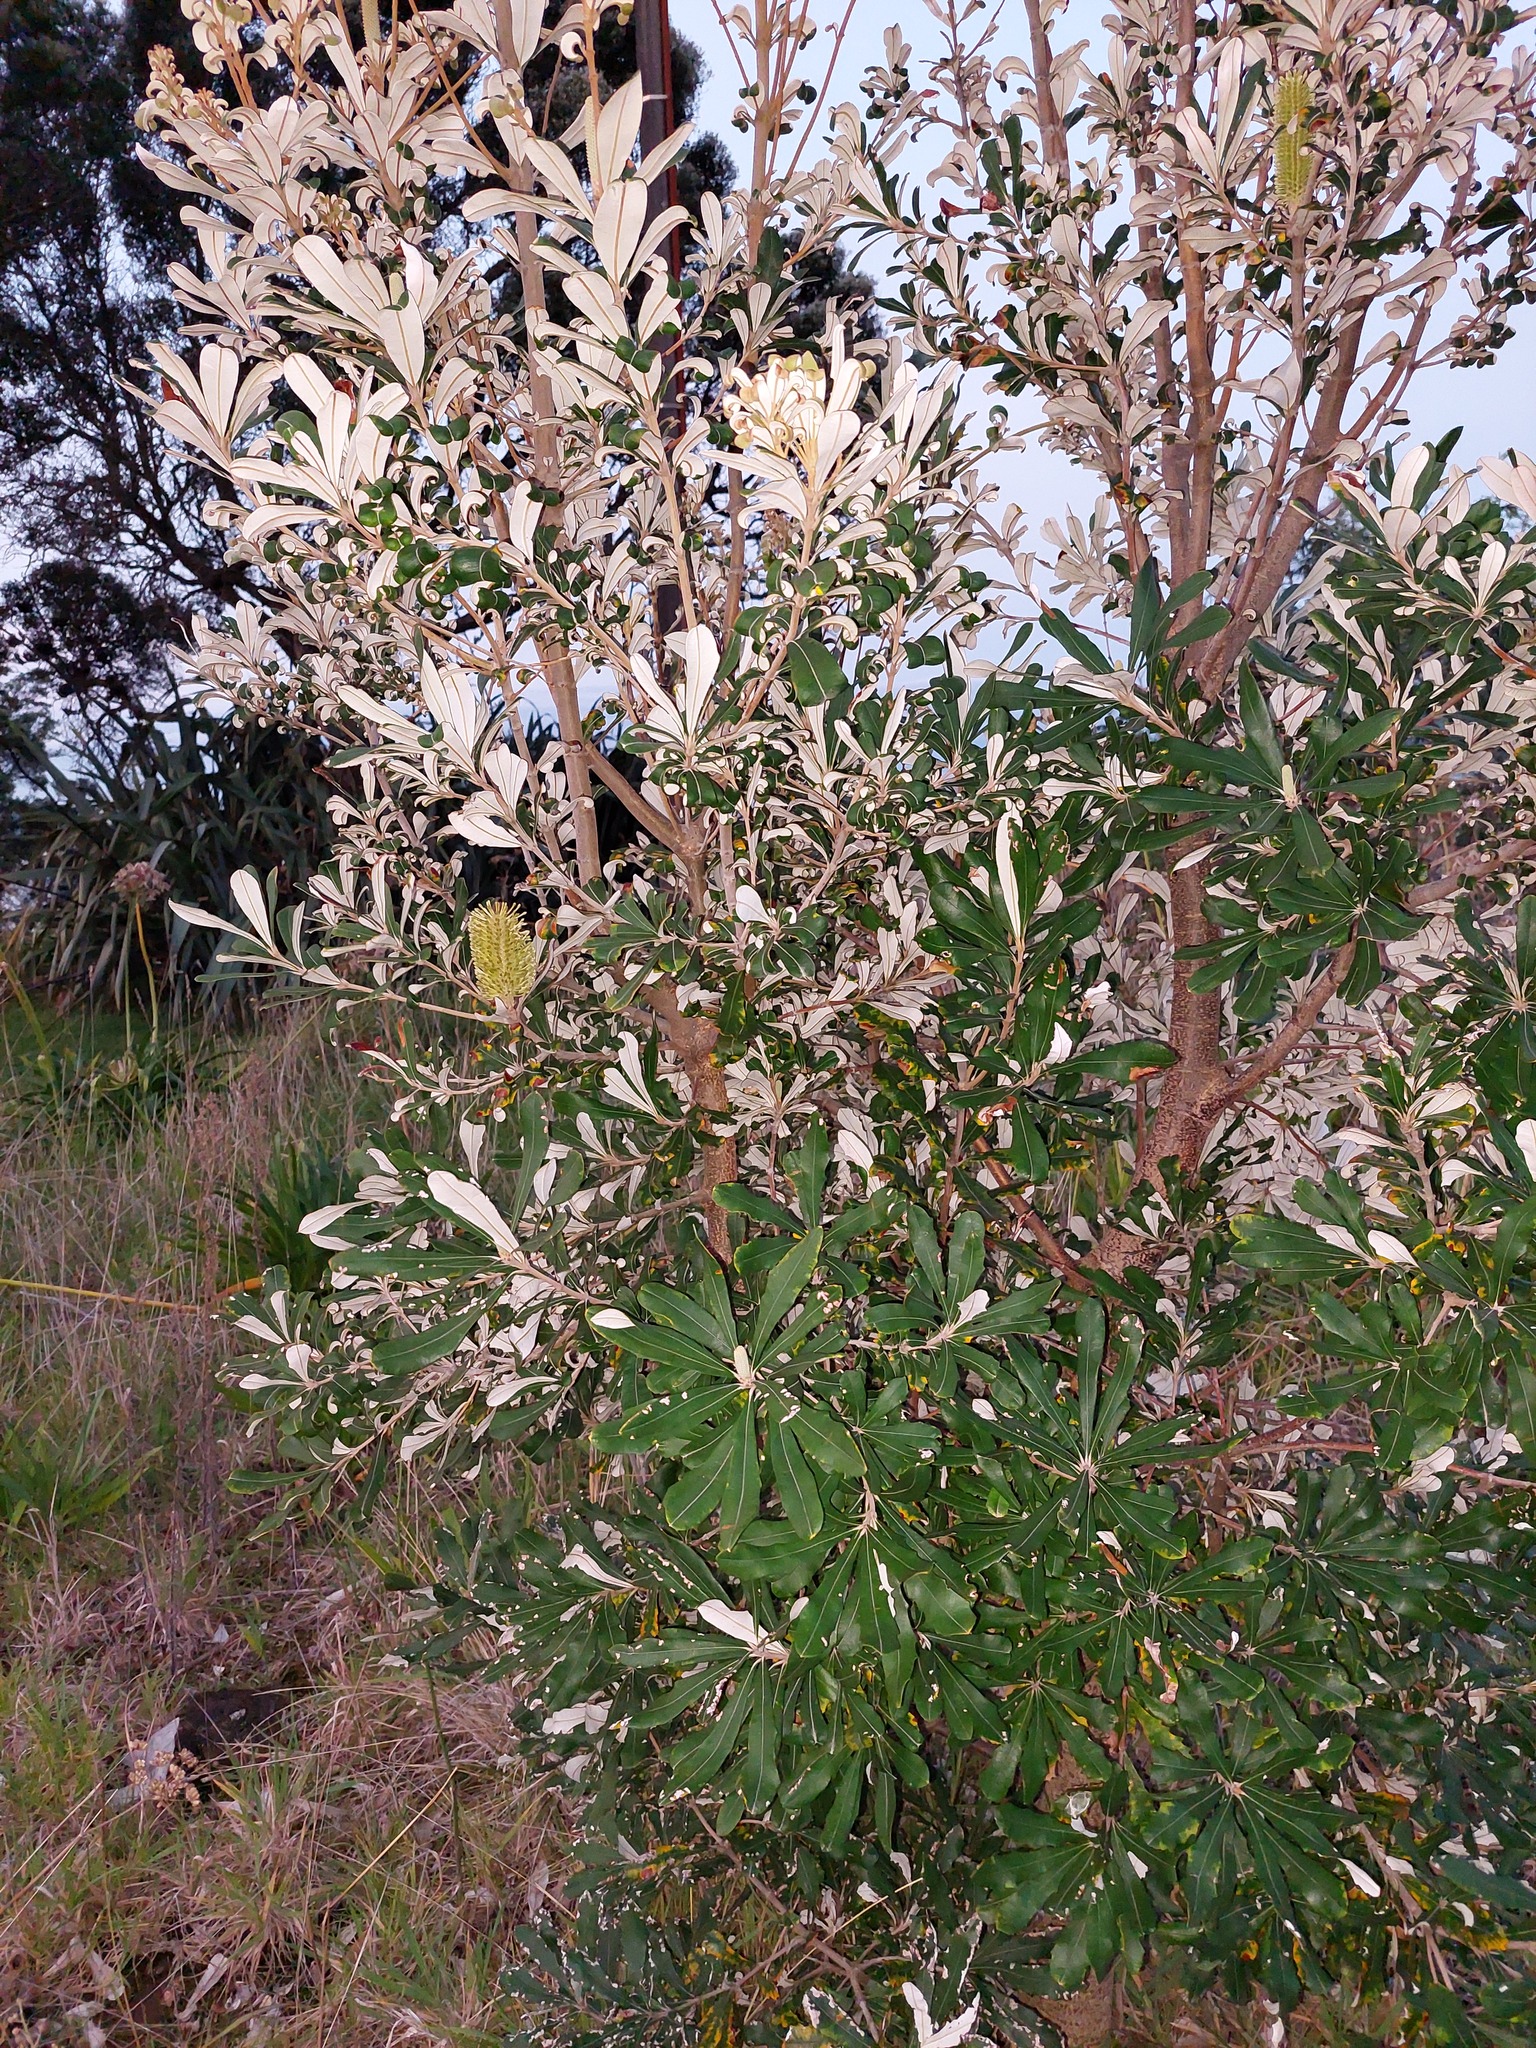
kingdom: Plantae
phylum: Tracheophyta
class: Magnoliopsida
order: Proteales
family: Proteaceae
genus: Banksia
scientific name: Banksia integrifolia
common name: White-honeysuckle
